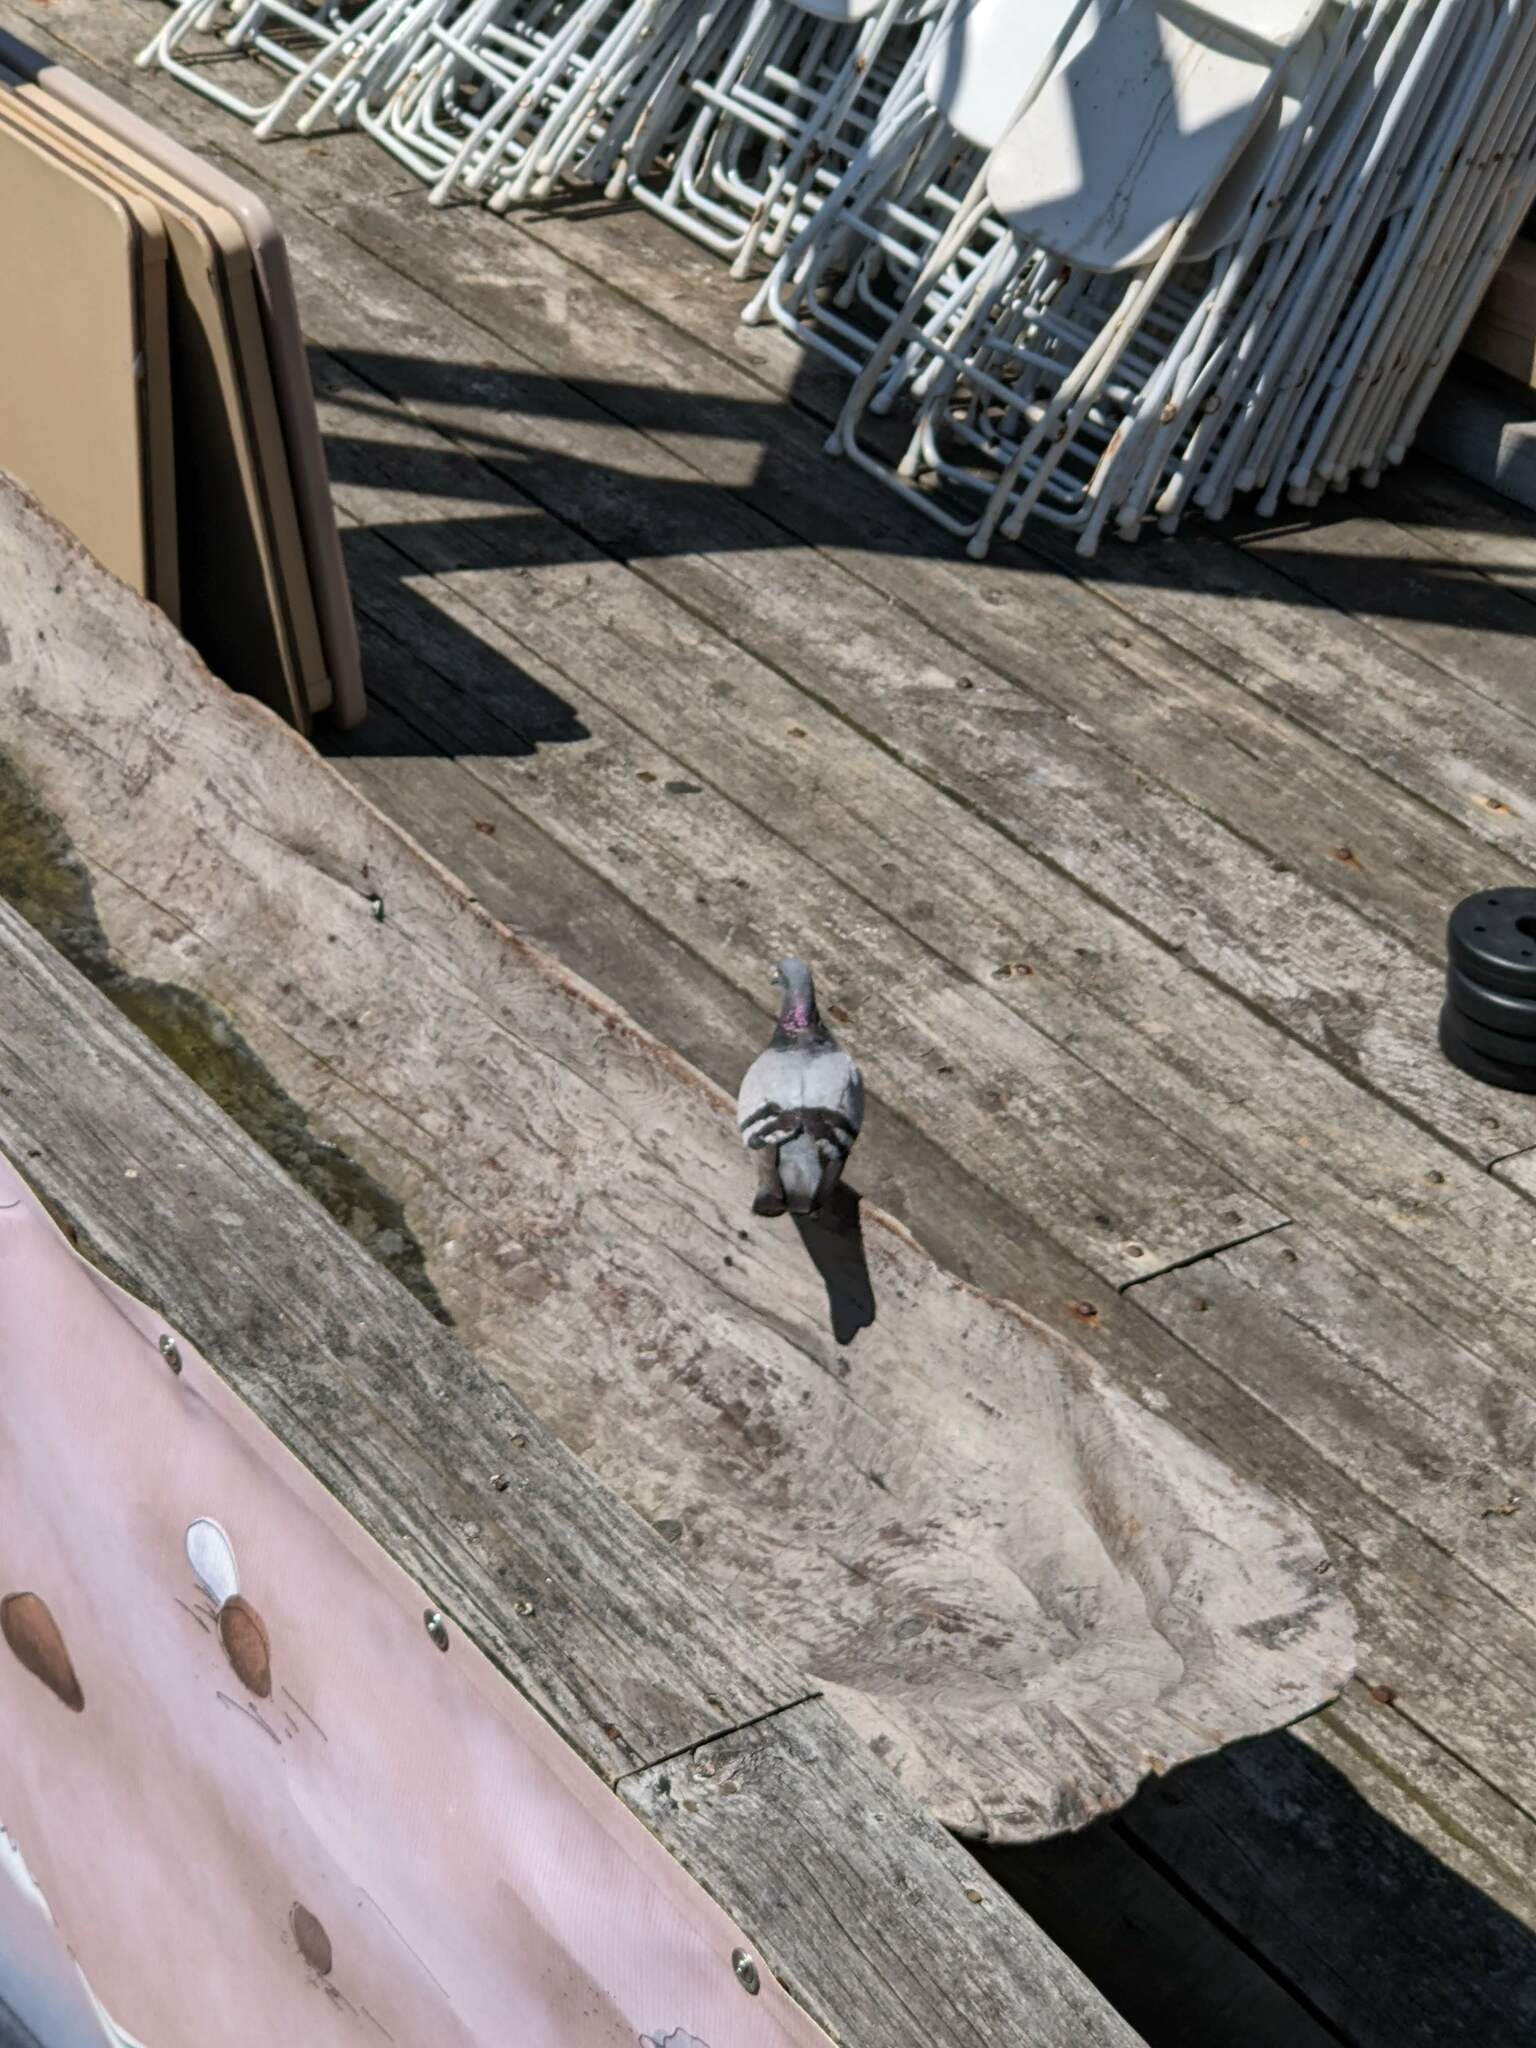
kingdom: Animalia
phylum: Chordata
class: Aves
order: Columbiformes
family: Columbidae
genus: Columba
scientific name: Columba livia
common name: Rock pigeon
